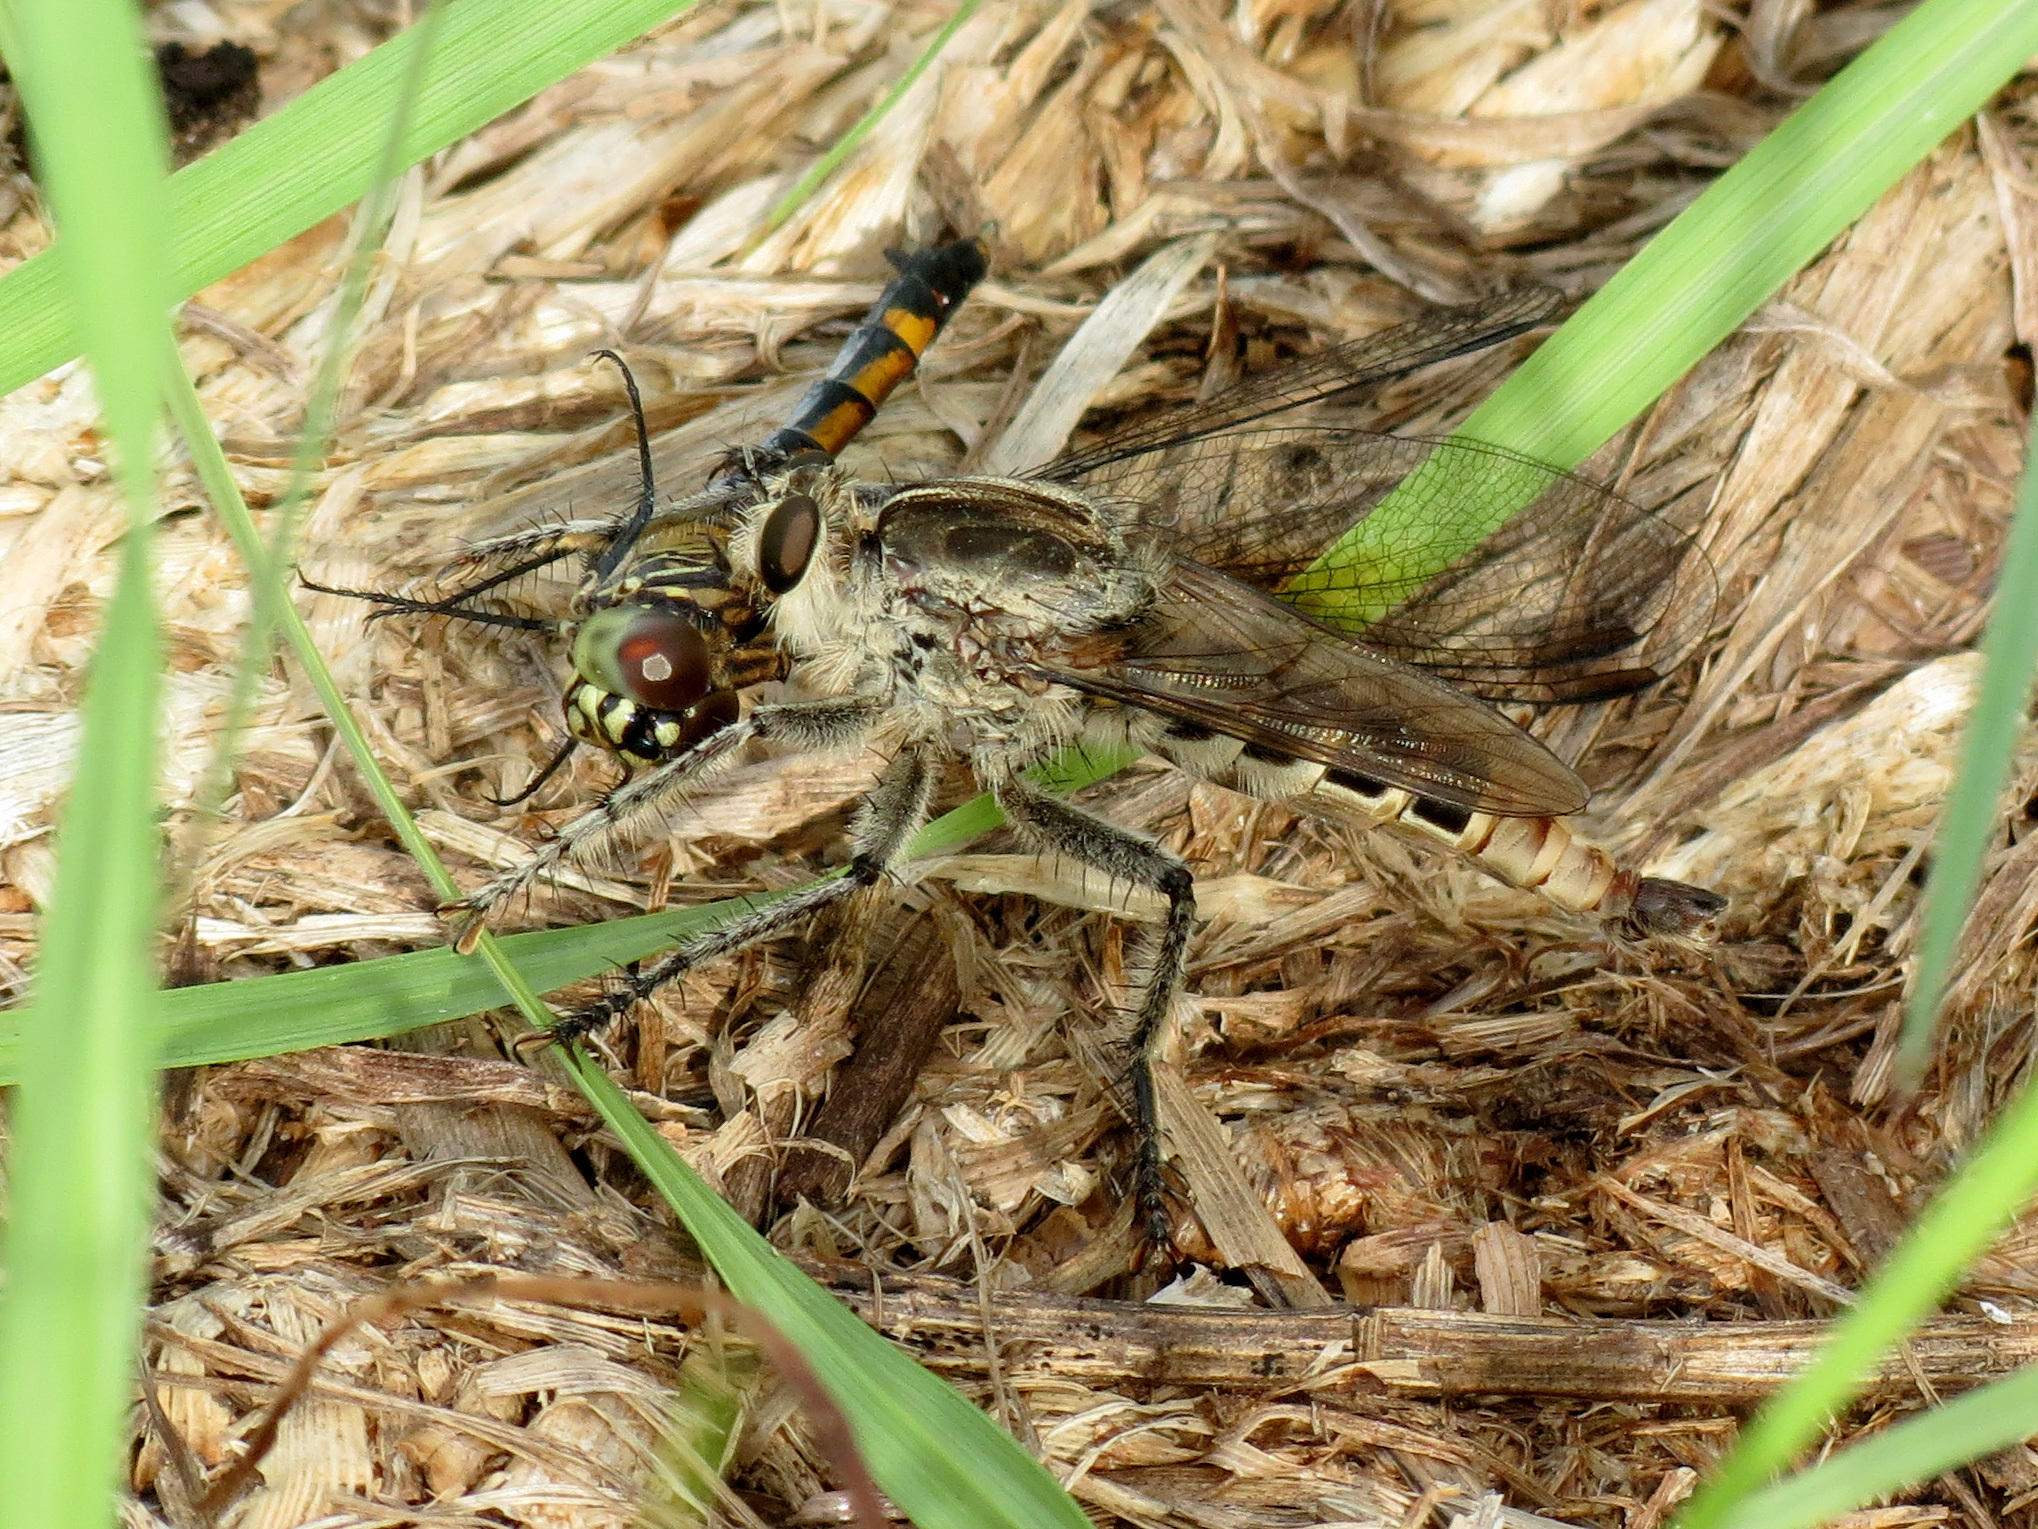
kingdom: Animalia
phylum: Arthropoda
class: Insecta
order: Diptera
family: Asilidae
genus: Triorla
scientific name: Triorla interrupta
